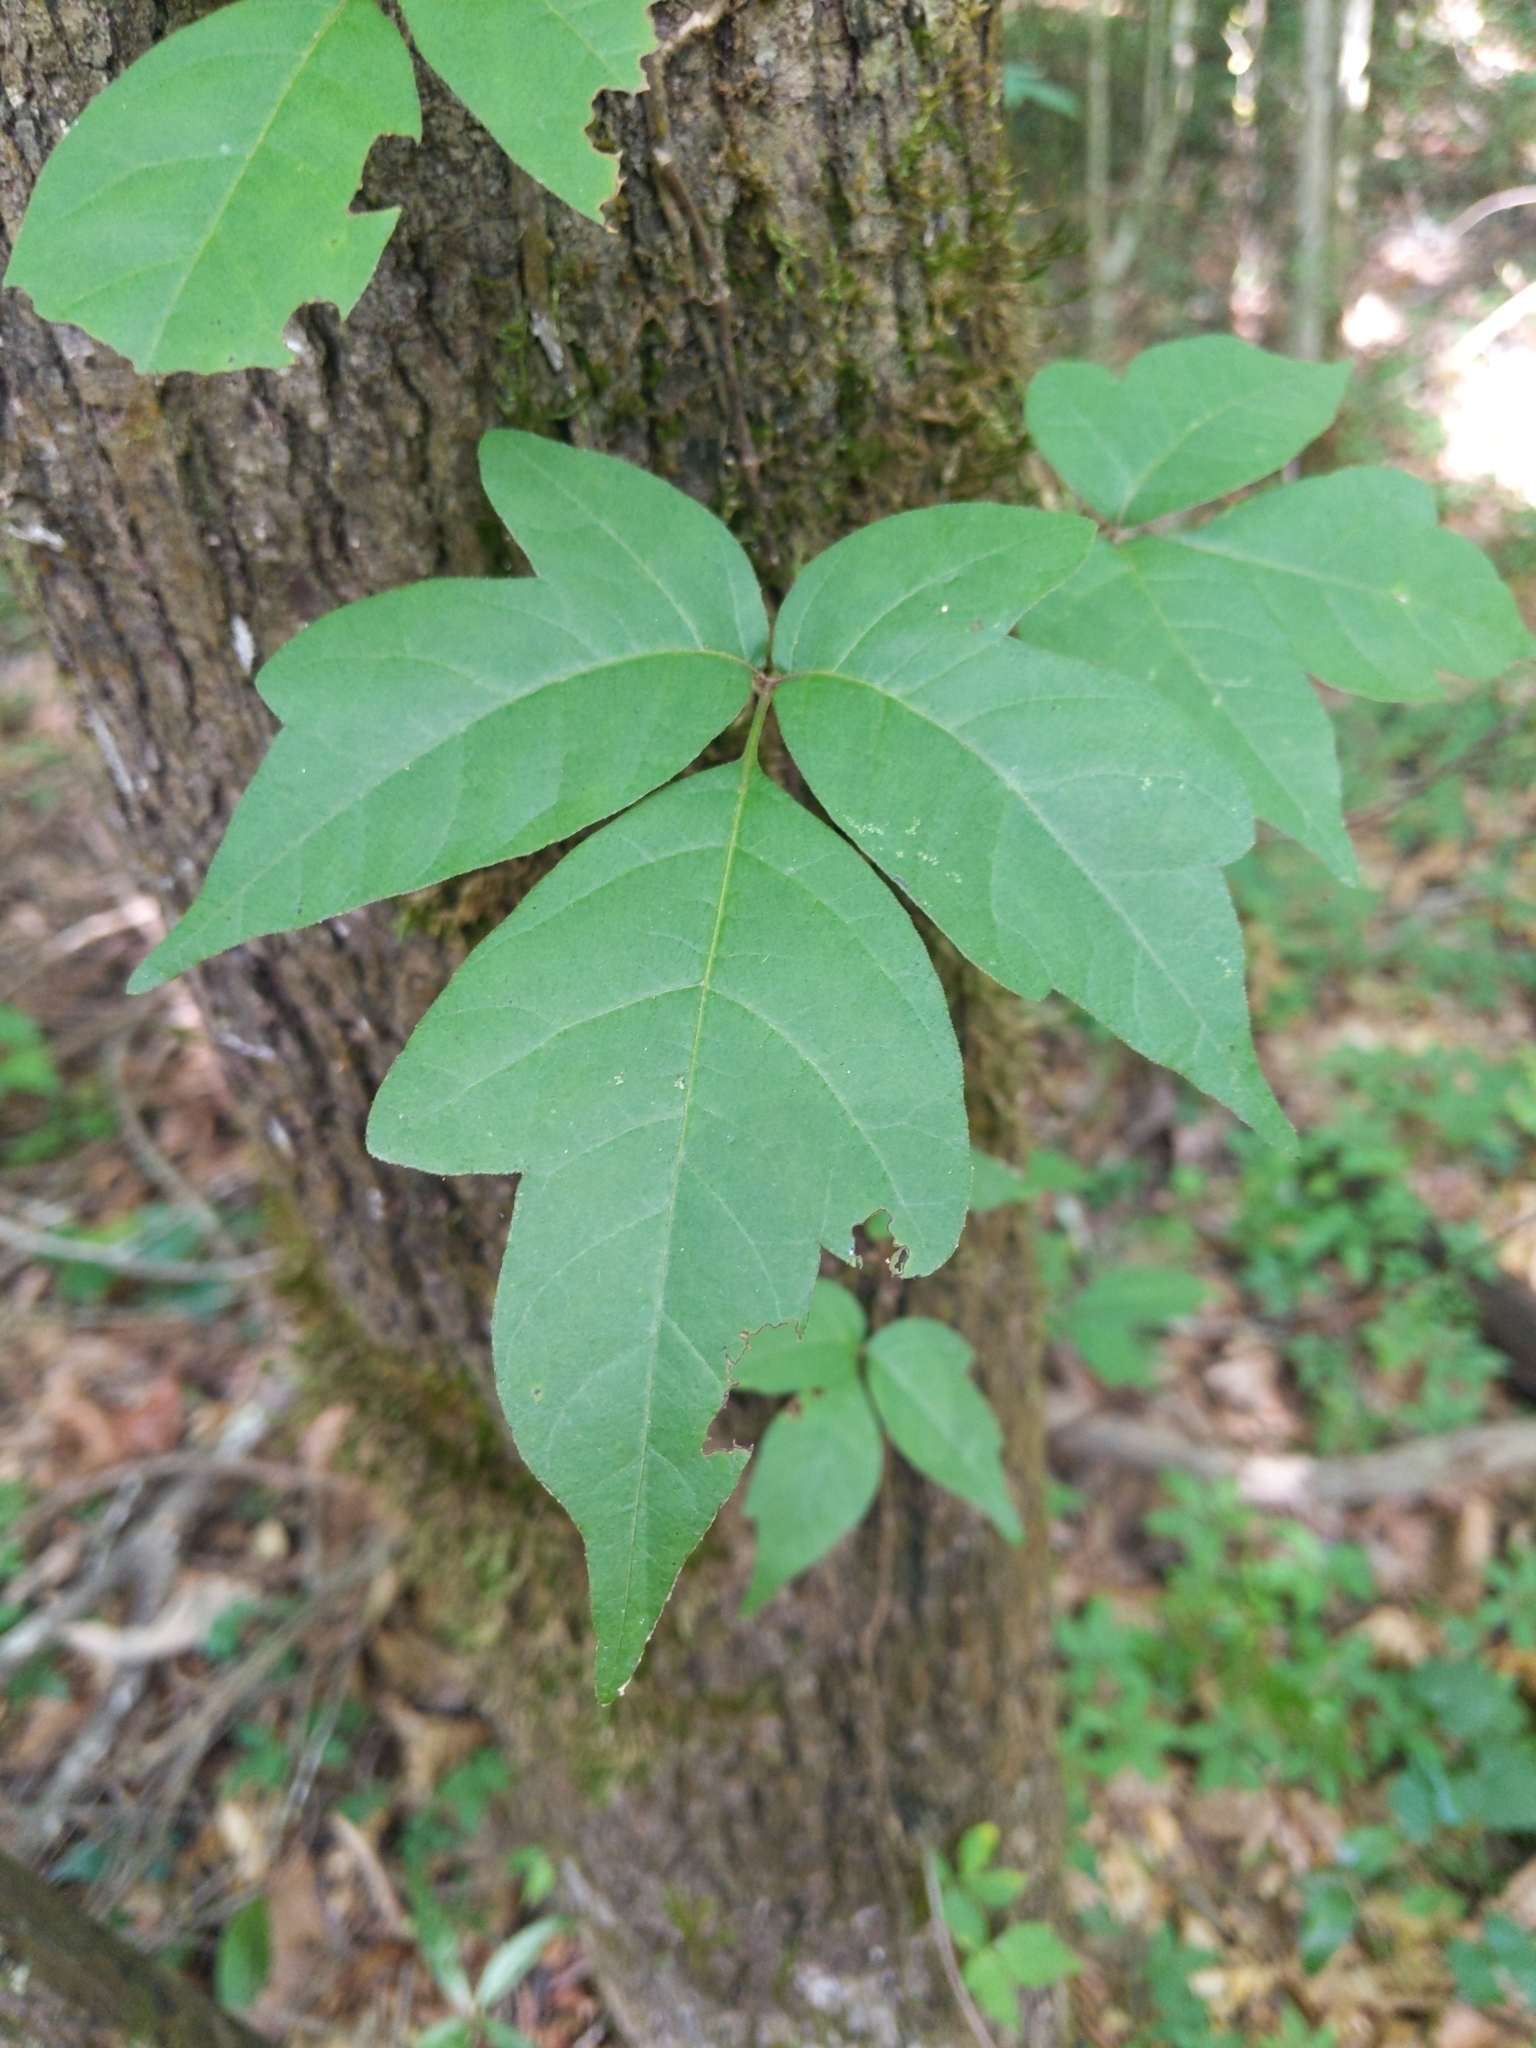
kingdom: Plantae
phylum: Tracheophyta
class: Magnoliopsida
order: Sapindales
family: Anacardiaceae
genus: Toxicodendron
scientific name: Toxicodendron radicans
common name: Poison ivy
